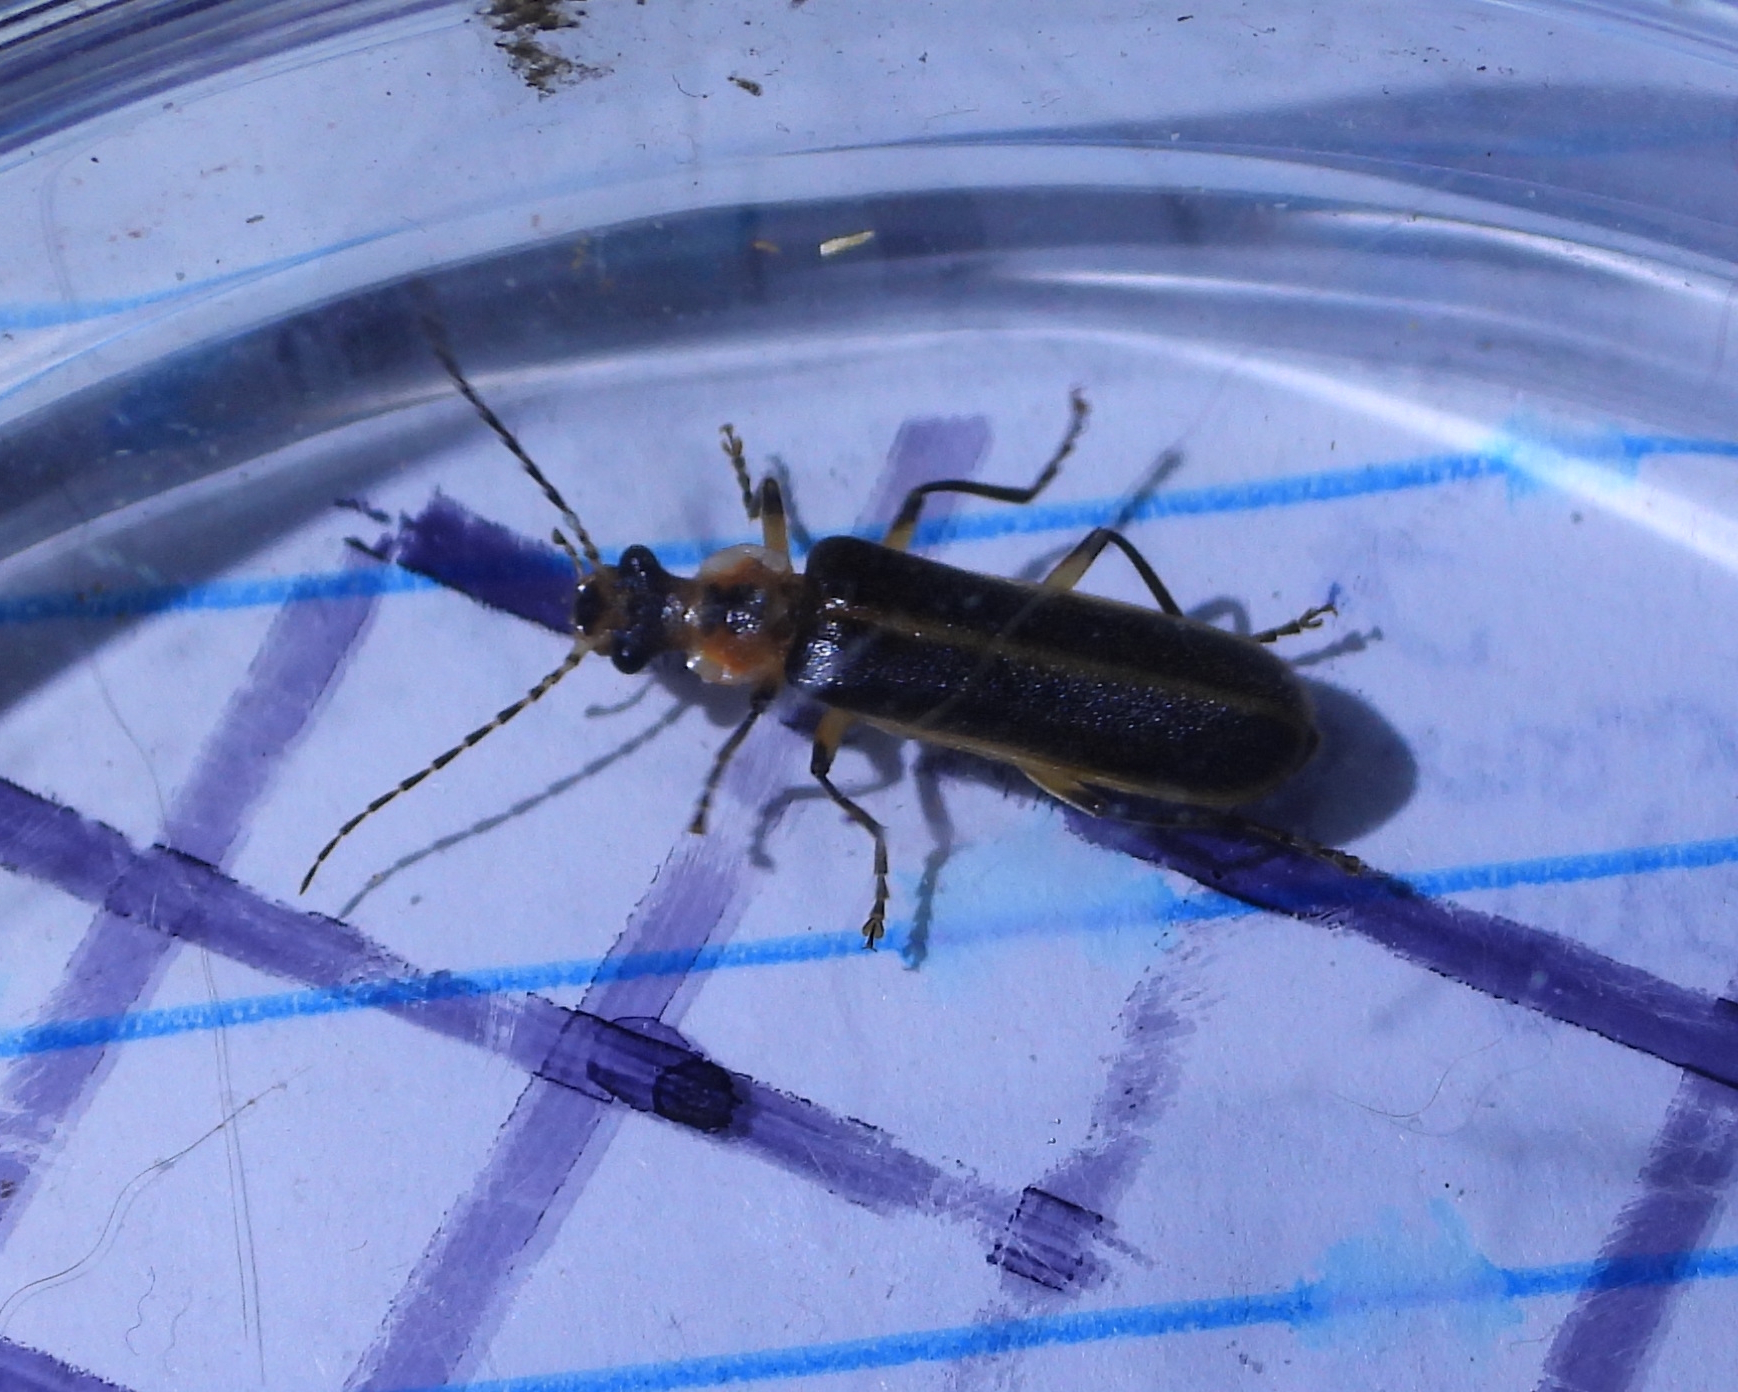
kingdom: Animalia
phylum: Arthropoda
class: Insecta
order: Coleoptera
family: Cantharidae
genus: Podabrus
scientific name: Podabrus basilaris
